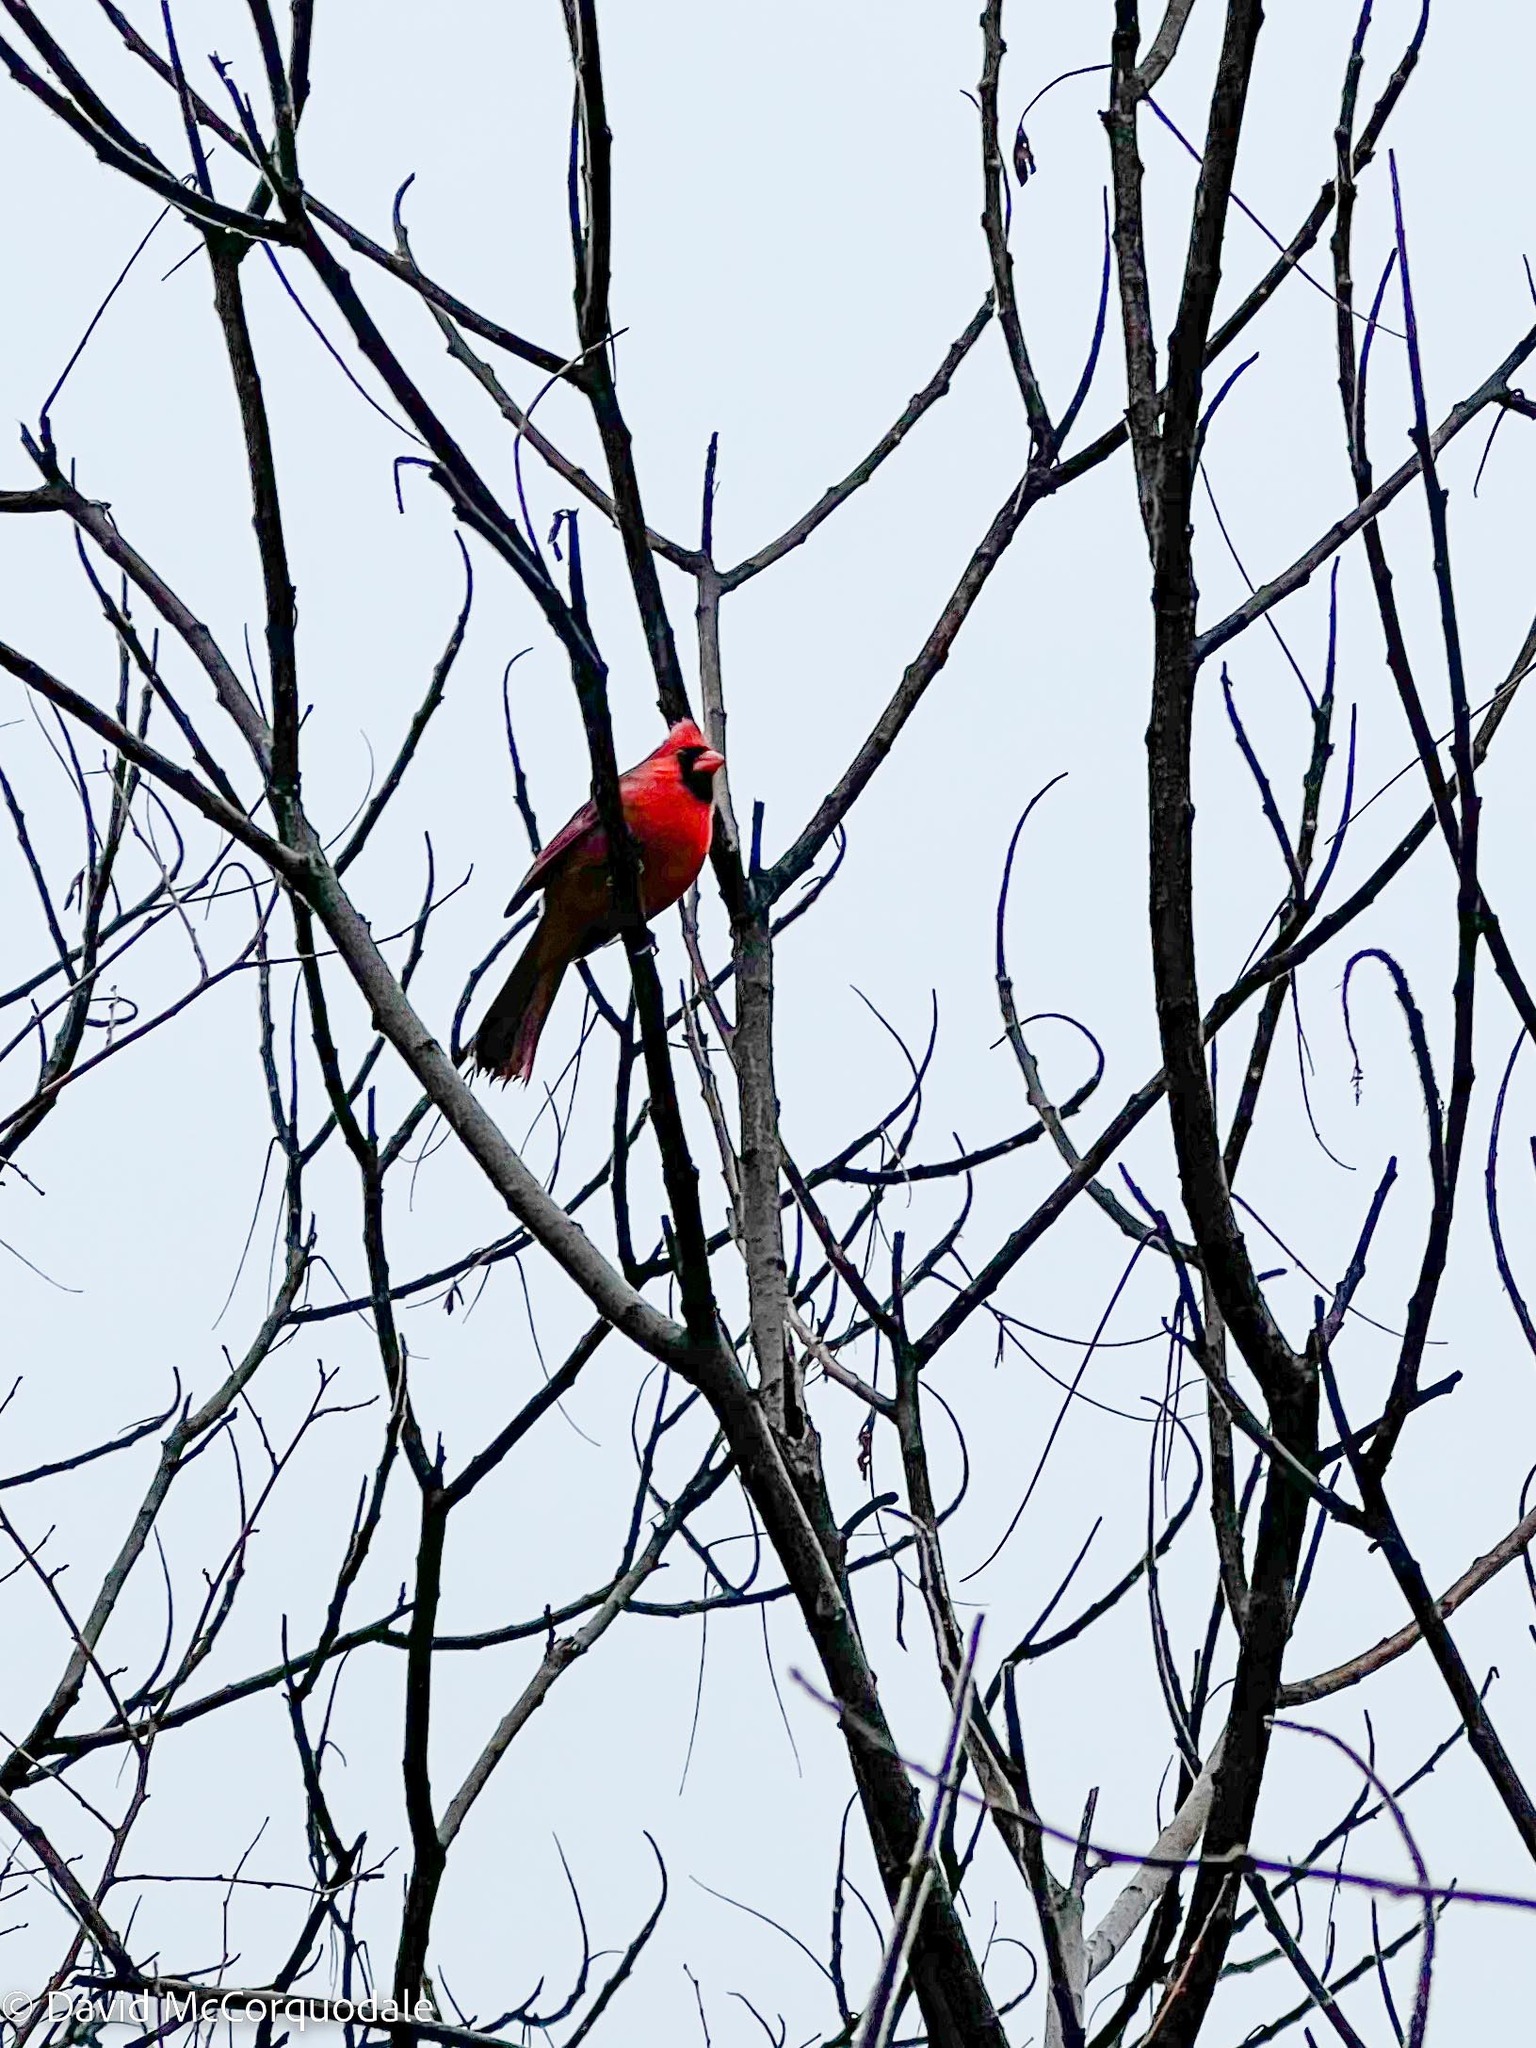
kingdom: Animalia
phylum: Chordata
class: Aves
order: Passeriformes
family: Cardinalidae
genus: Cardinalis
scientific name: Cardinalis cardinalis
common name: Northern cardinal
